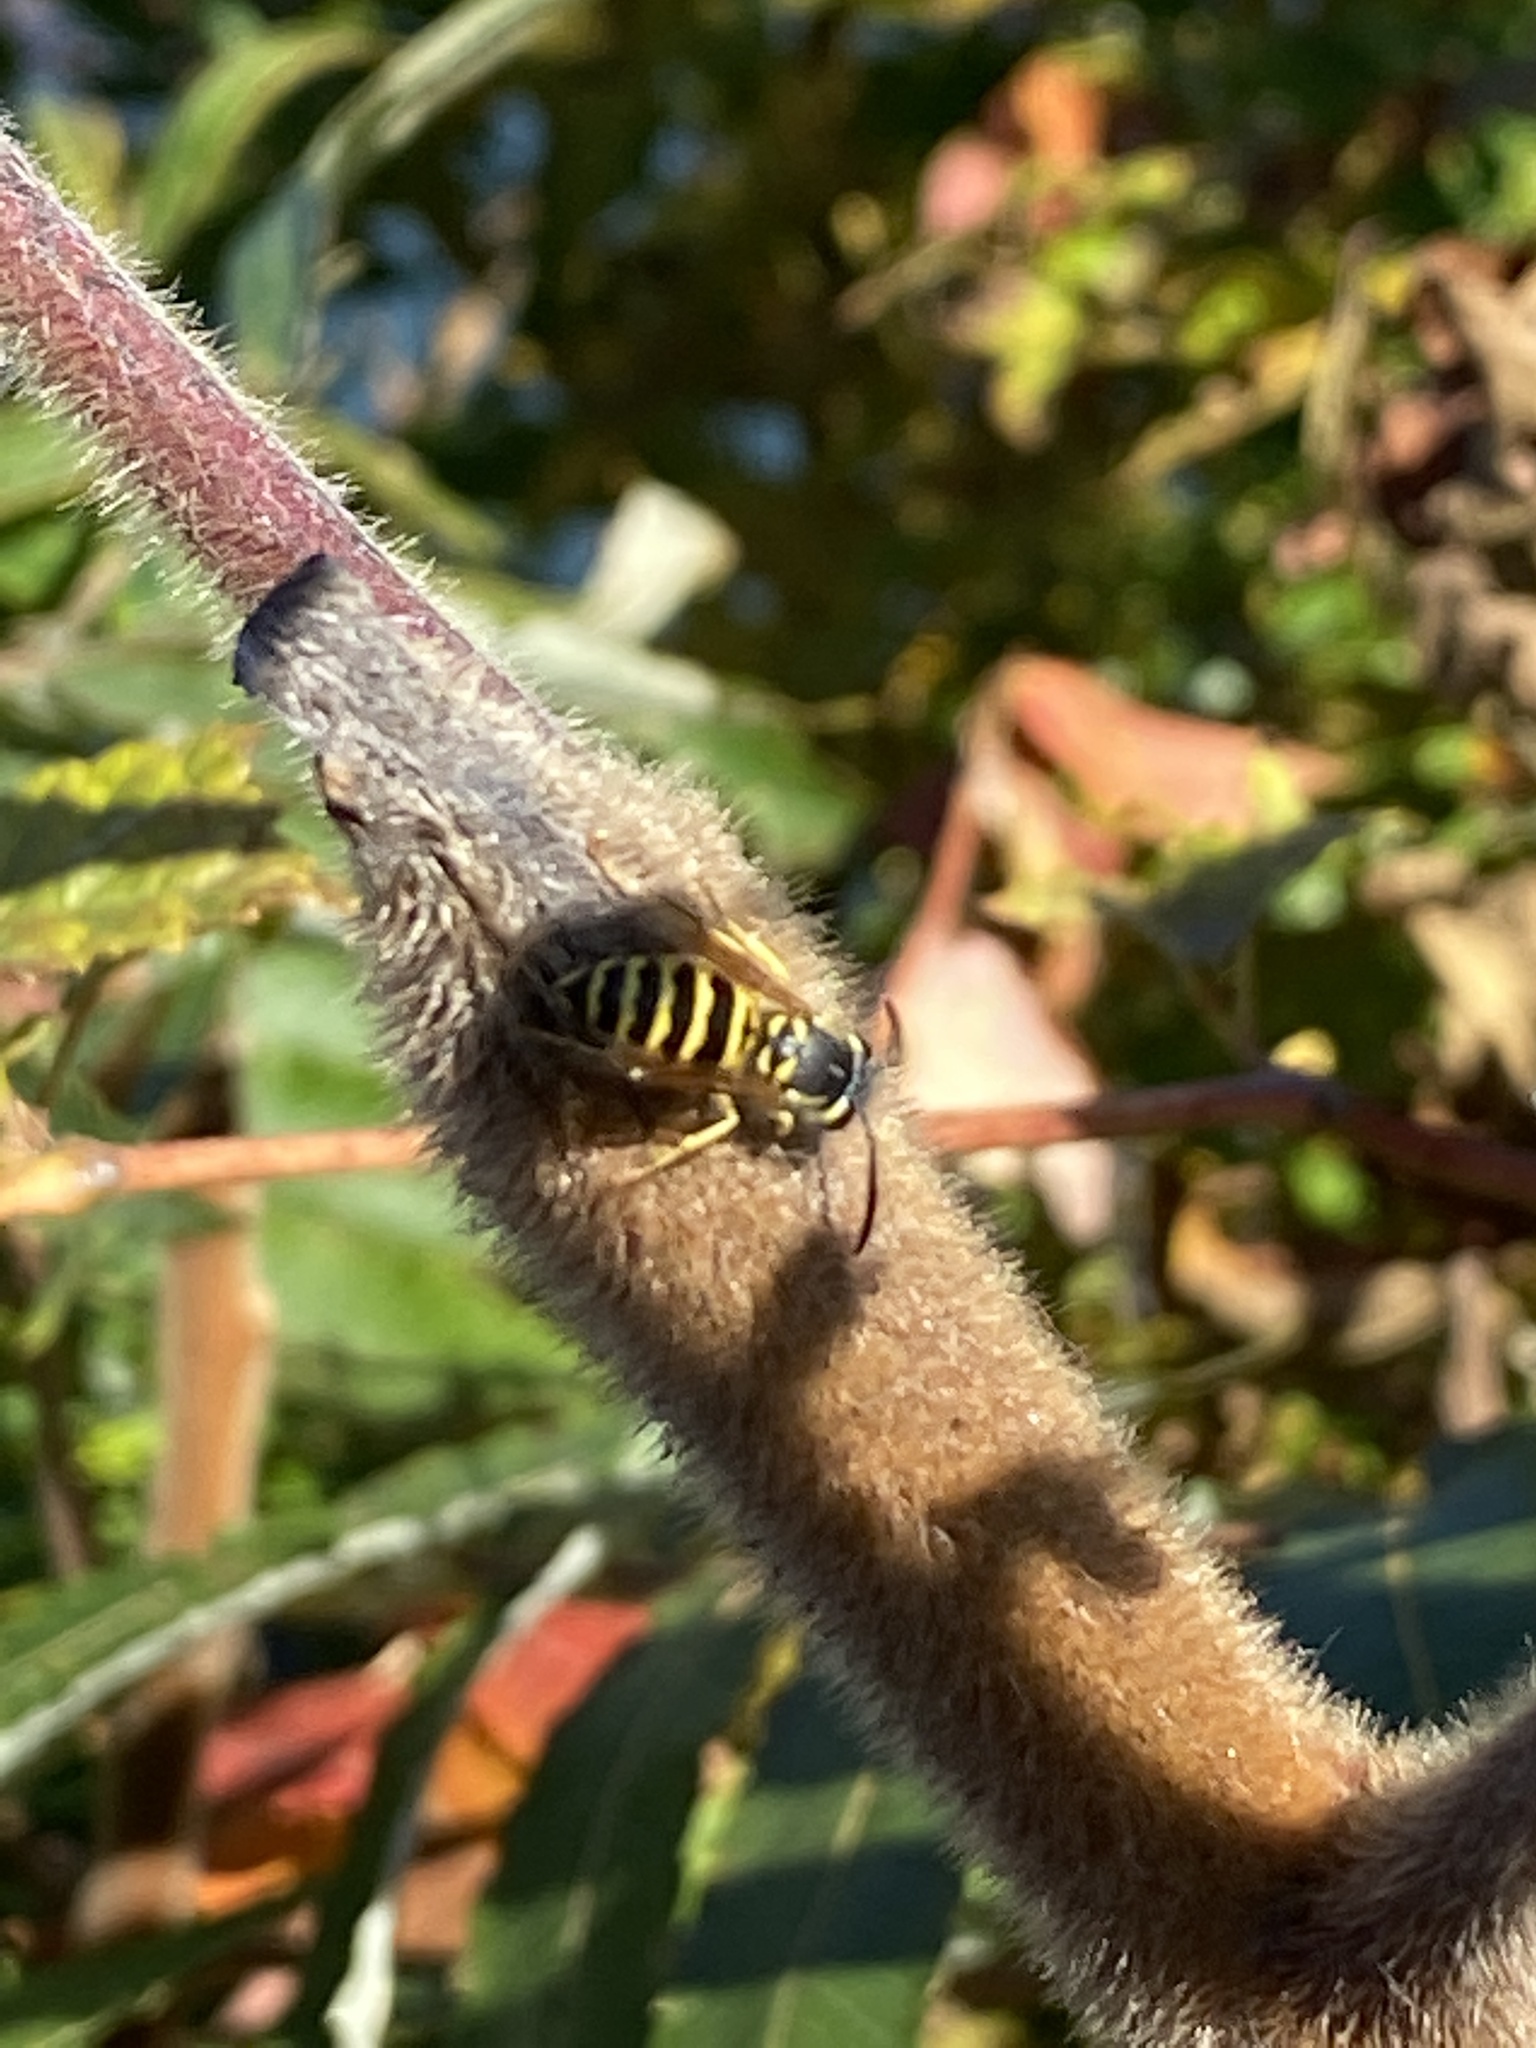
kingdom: Animalia
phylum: Arthropoda
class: Insecta
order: Hymenoptera
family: Vespidae
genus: Vespula
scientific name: Vespula maculifrons
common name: Eastern yellowjacket
